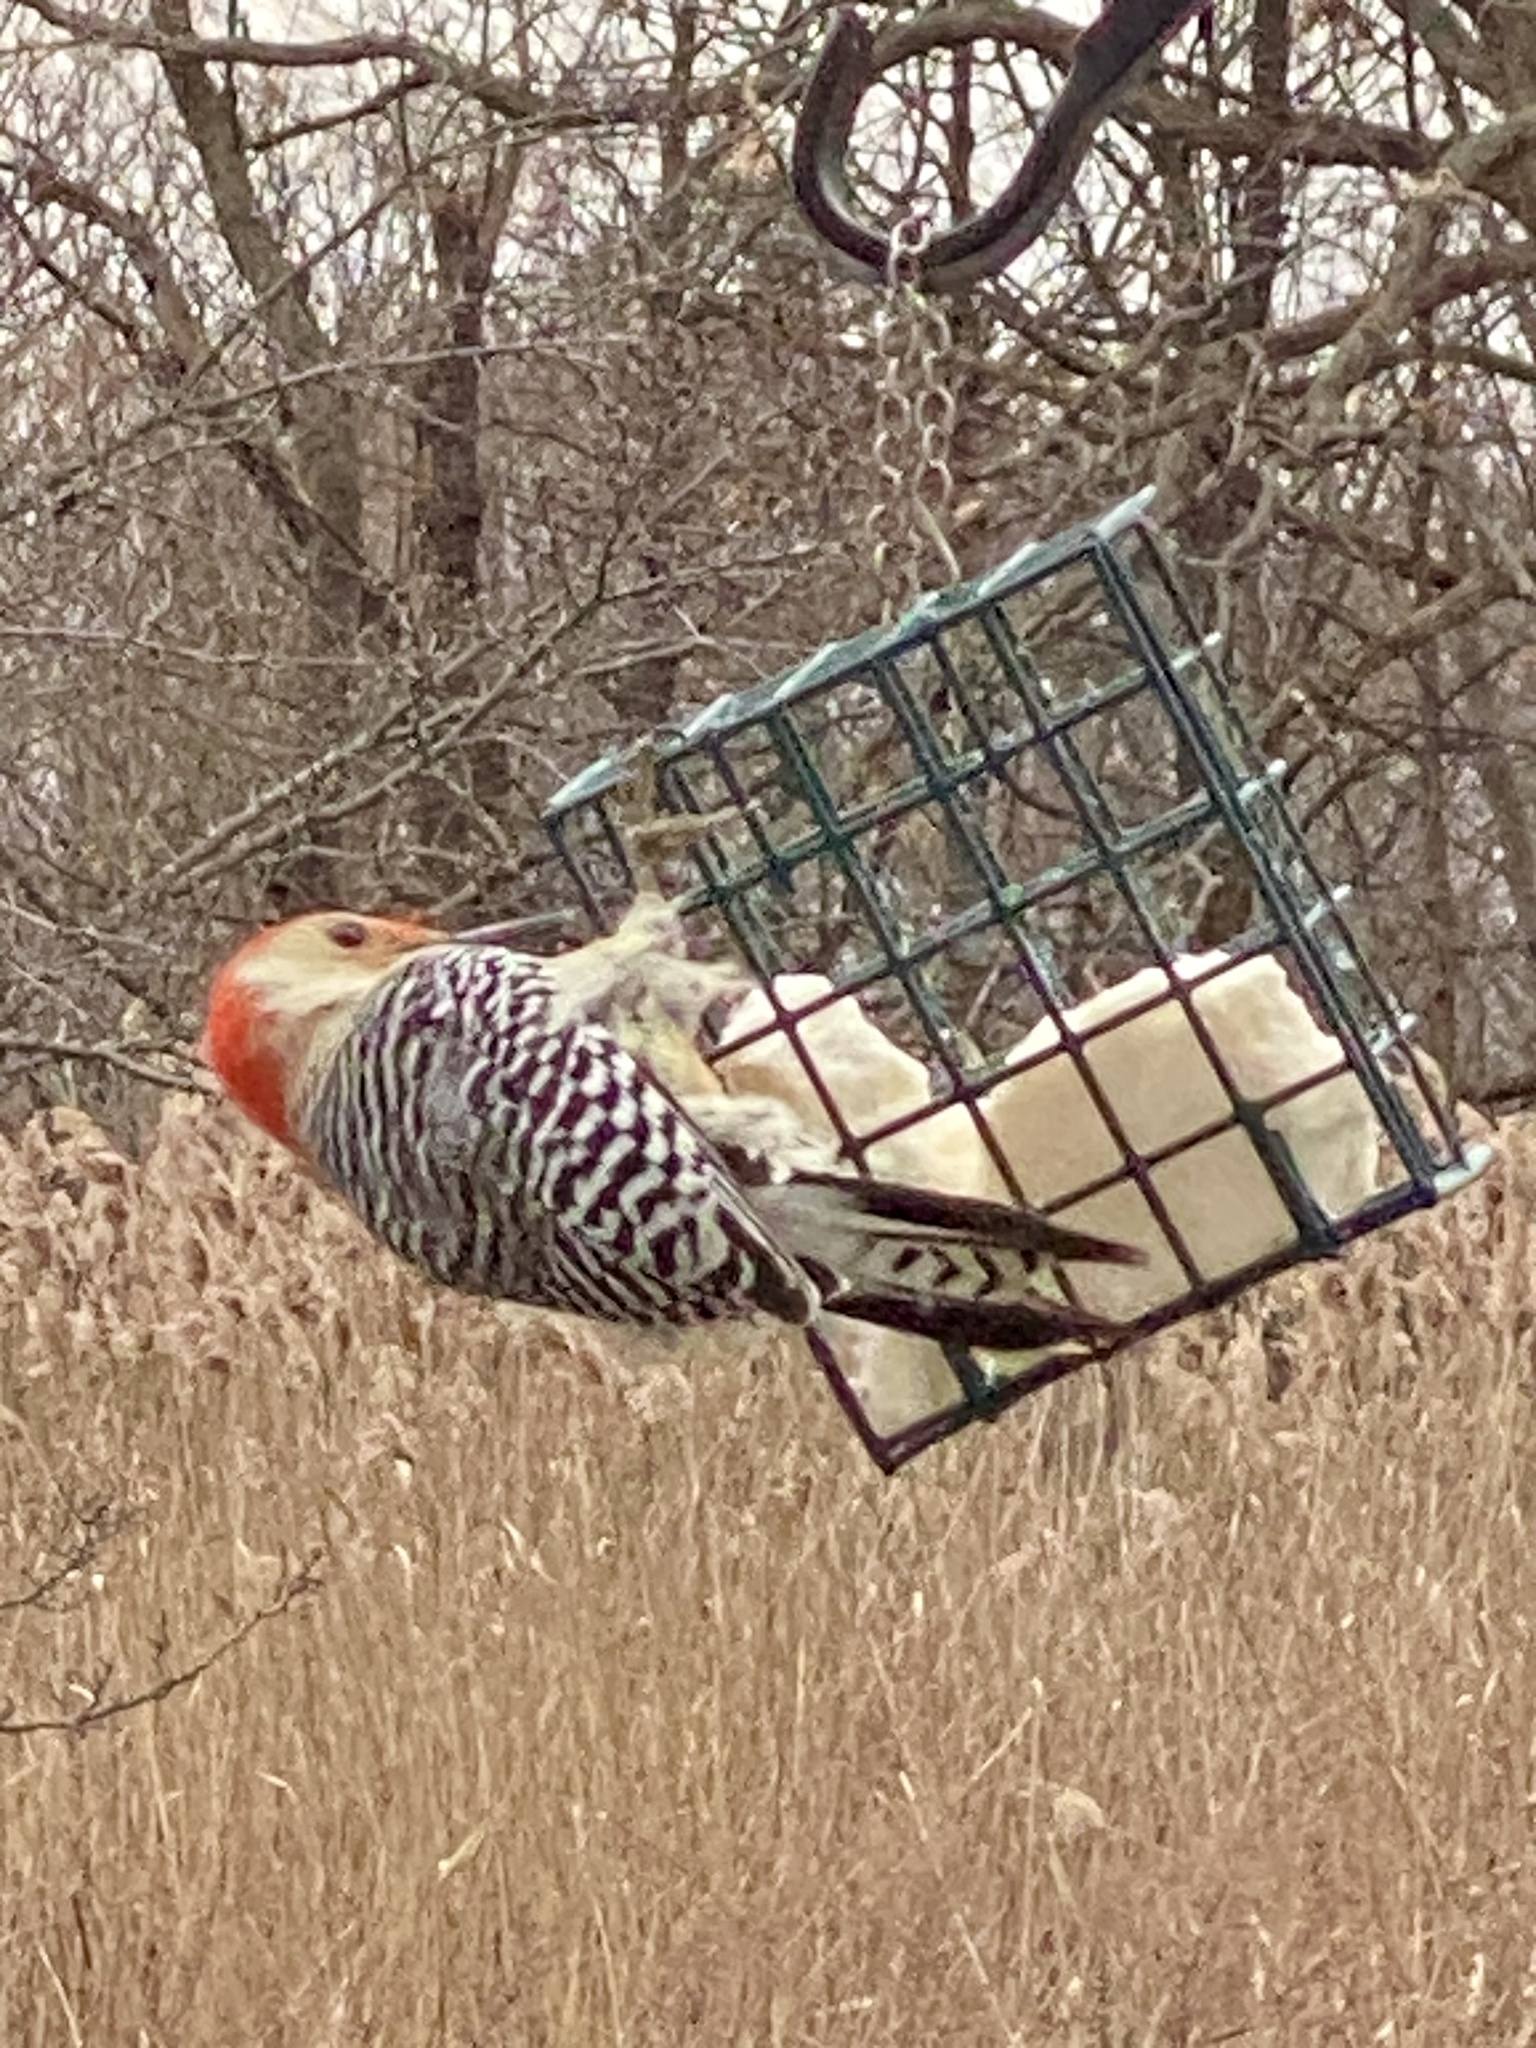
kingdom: Animalia
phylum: Chordata
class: Aves
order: Piciformes
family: Picidae
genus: Melanerpes
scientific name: Melanerpes carolinus
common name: Red-bellied woodpecker
